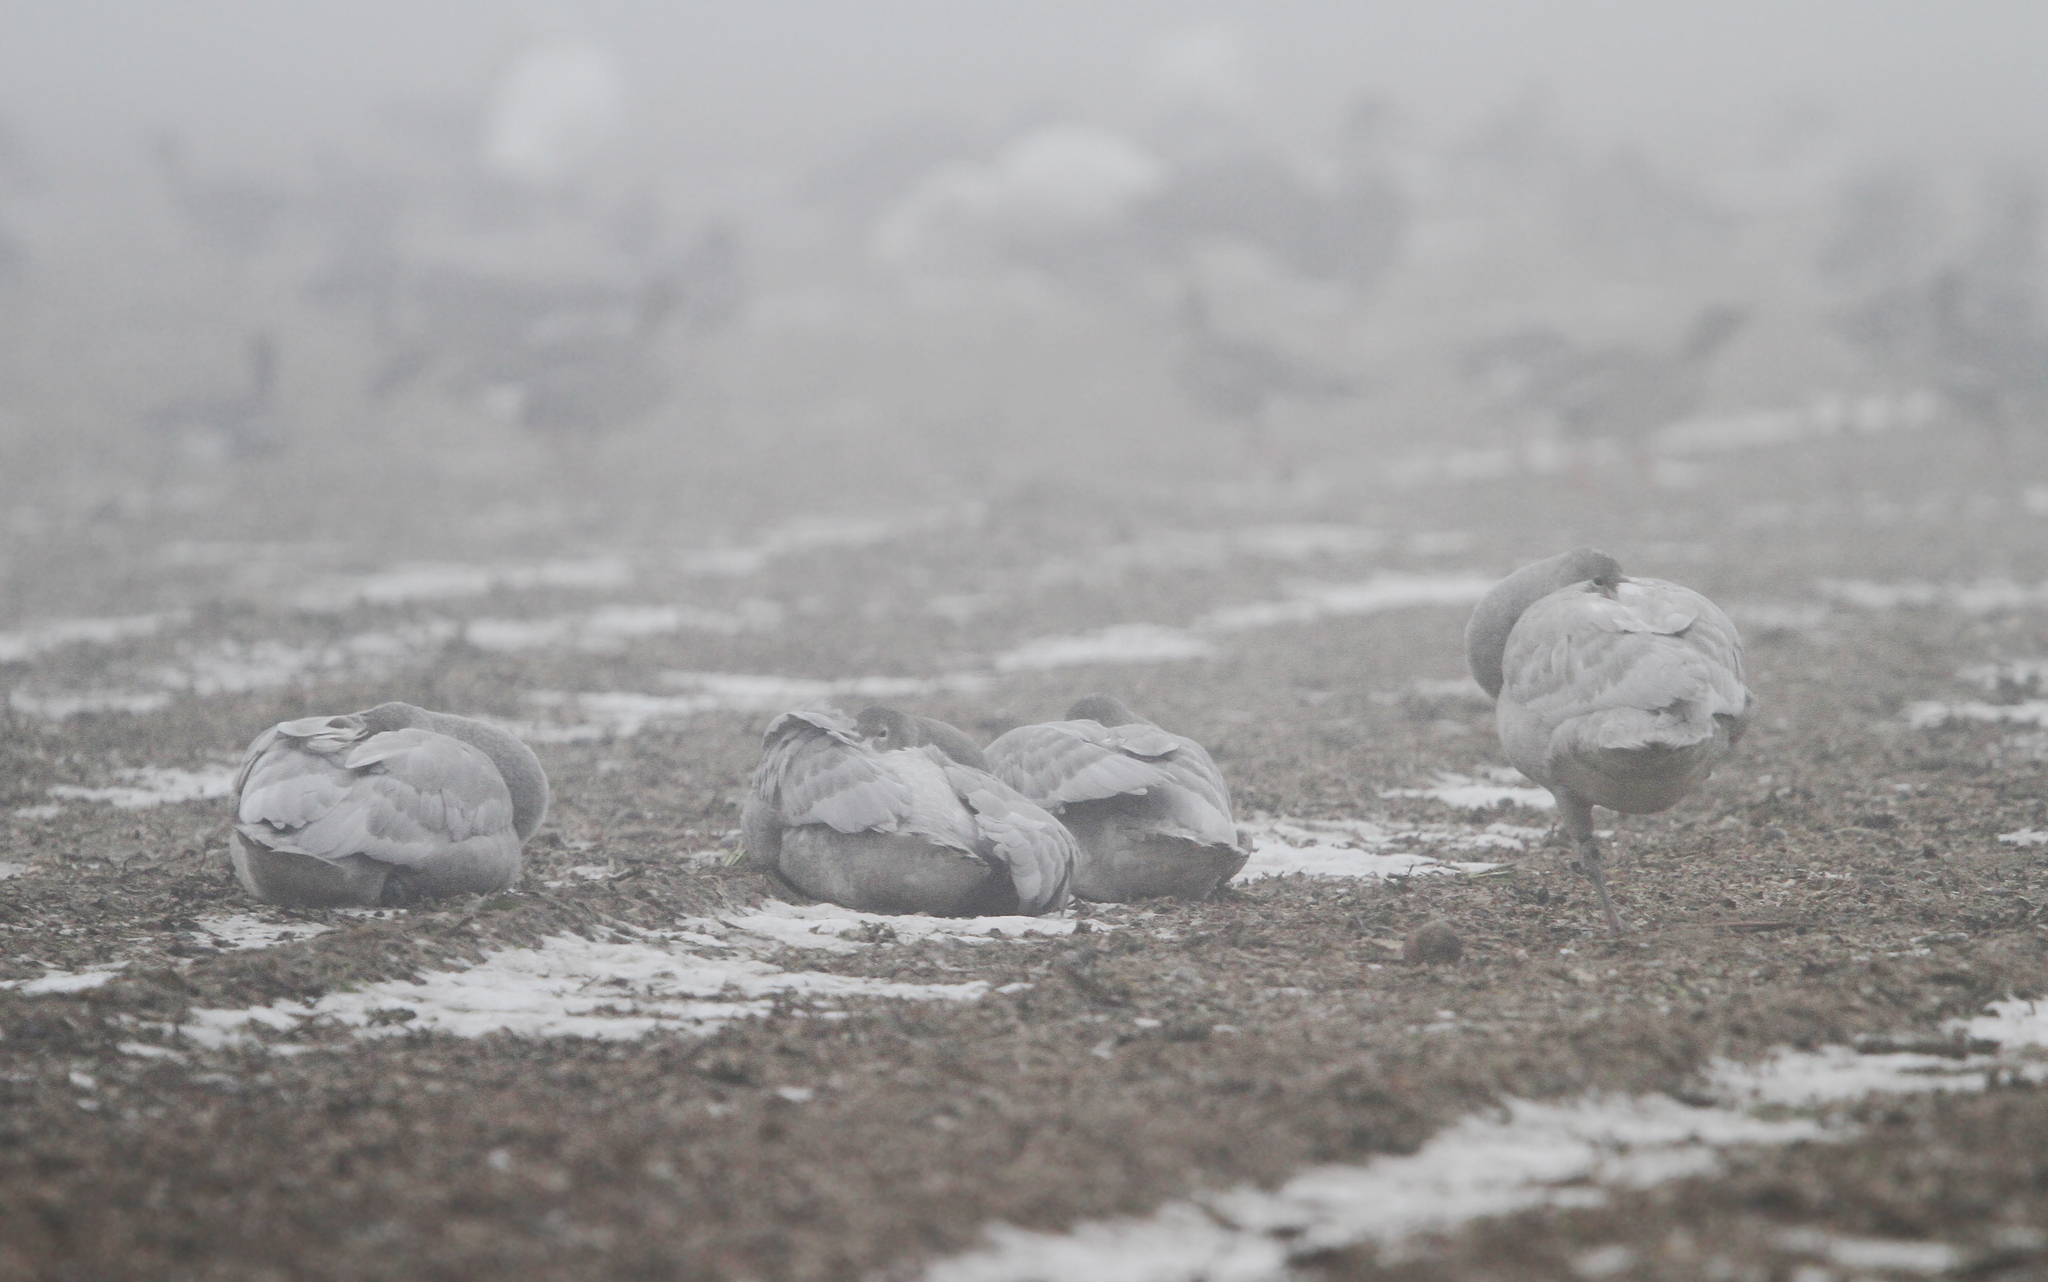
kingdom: Animalia
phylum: Chordata
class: Aves
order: Anseriformes
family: Anatidae
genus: Cygnus
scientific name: Cygnus cygnus
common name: Whooper swan
